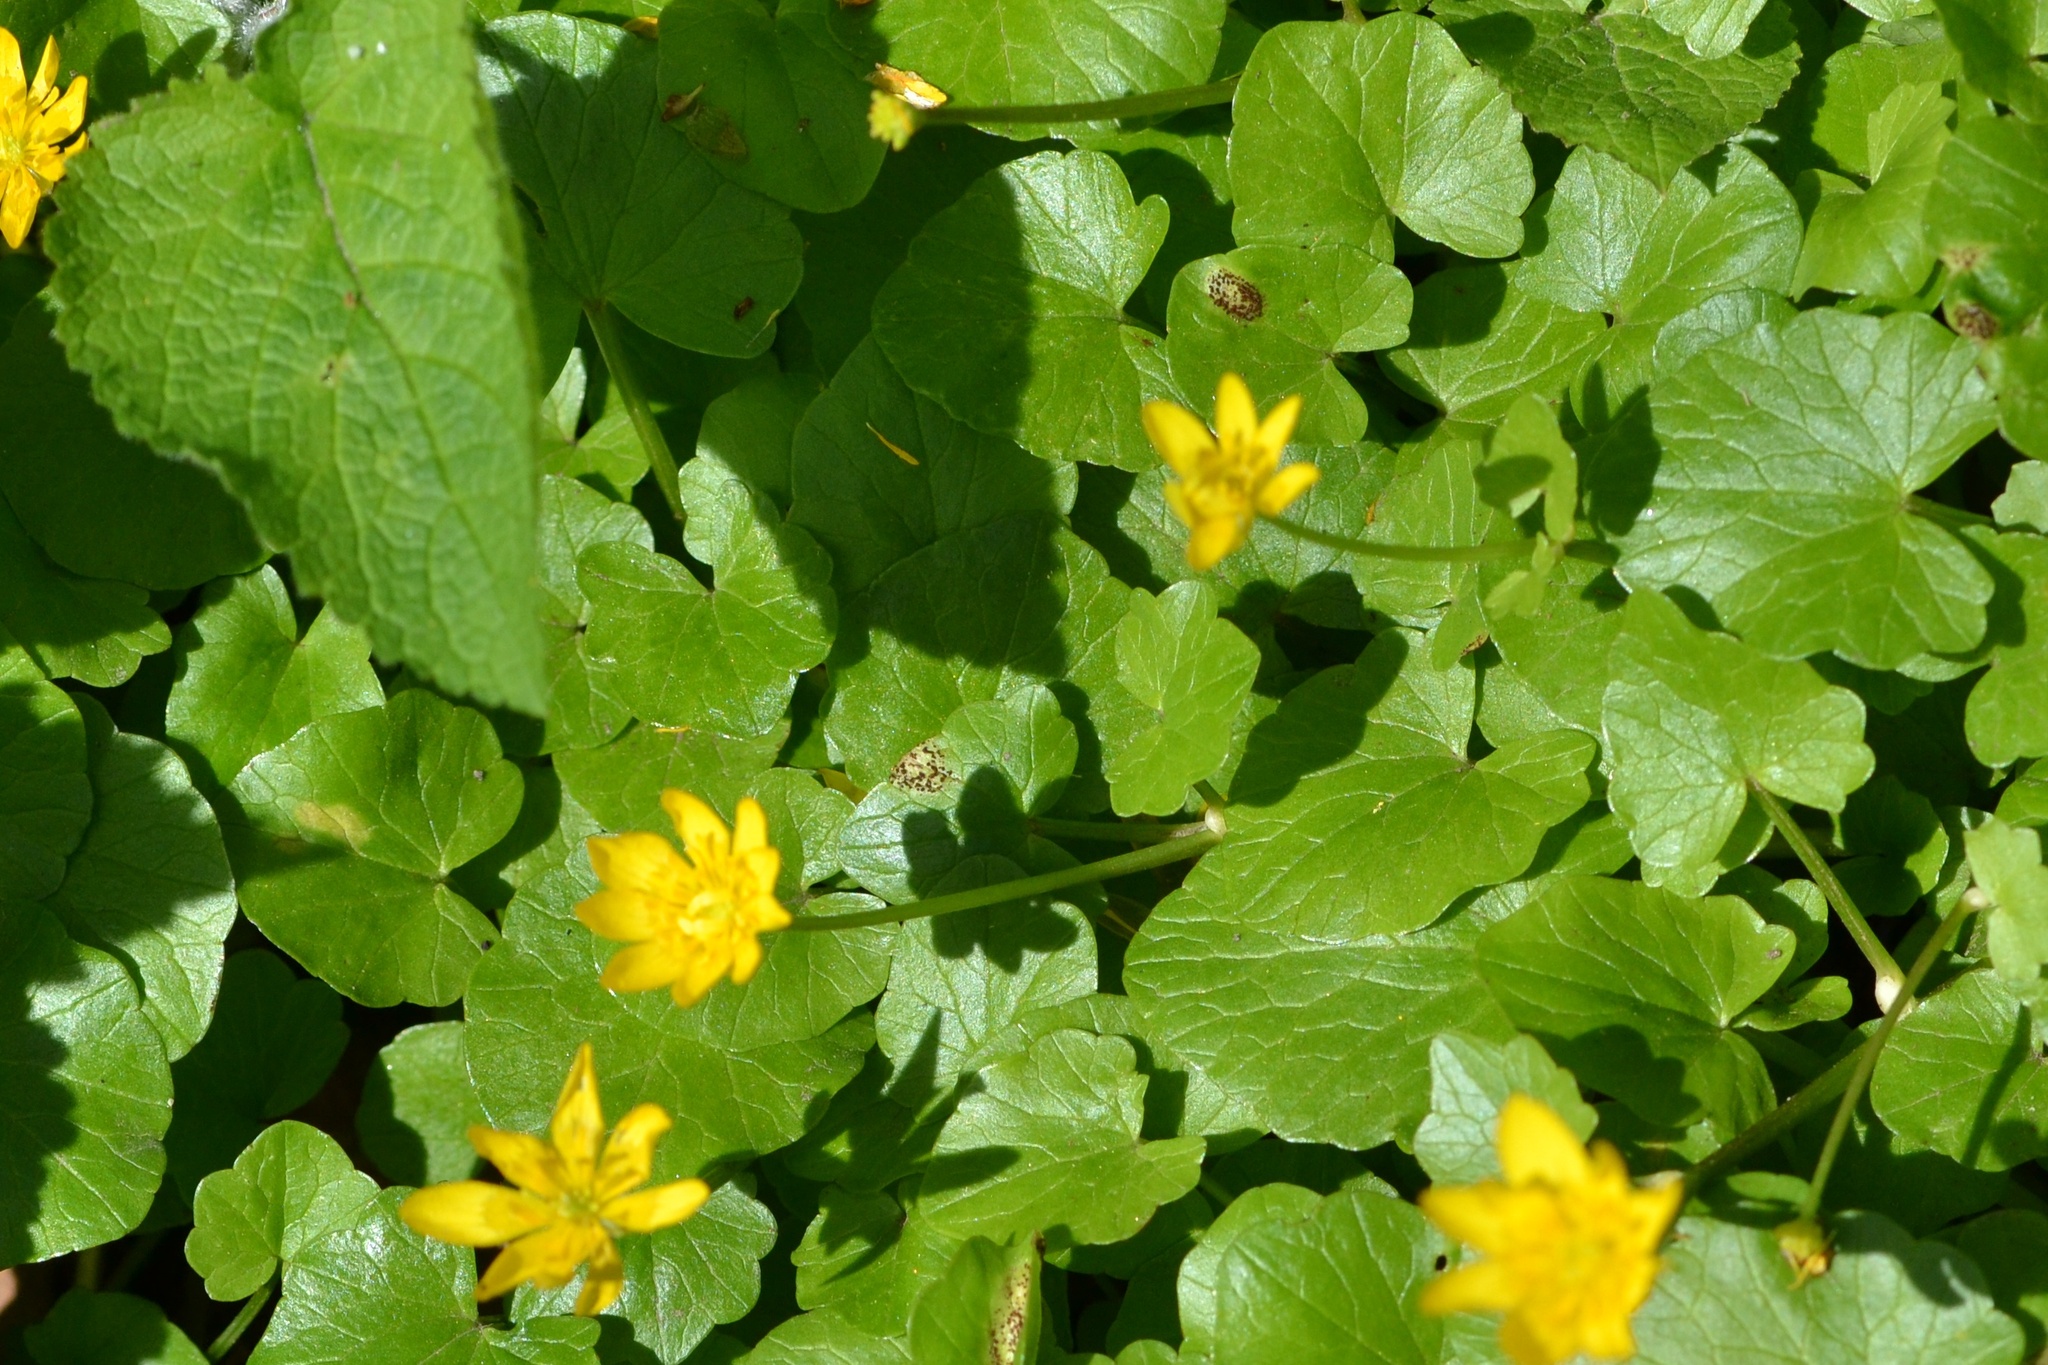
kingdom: Plantae
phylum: Tracheophyta
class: Magnoliopsida
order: Ranunculales
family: Ranunculaceae
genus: Ficaria
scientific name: Ficaria verna
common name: Lesser celandine
